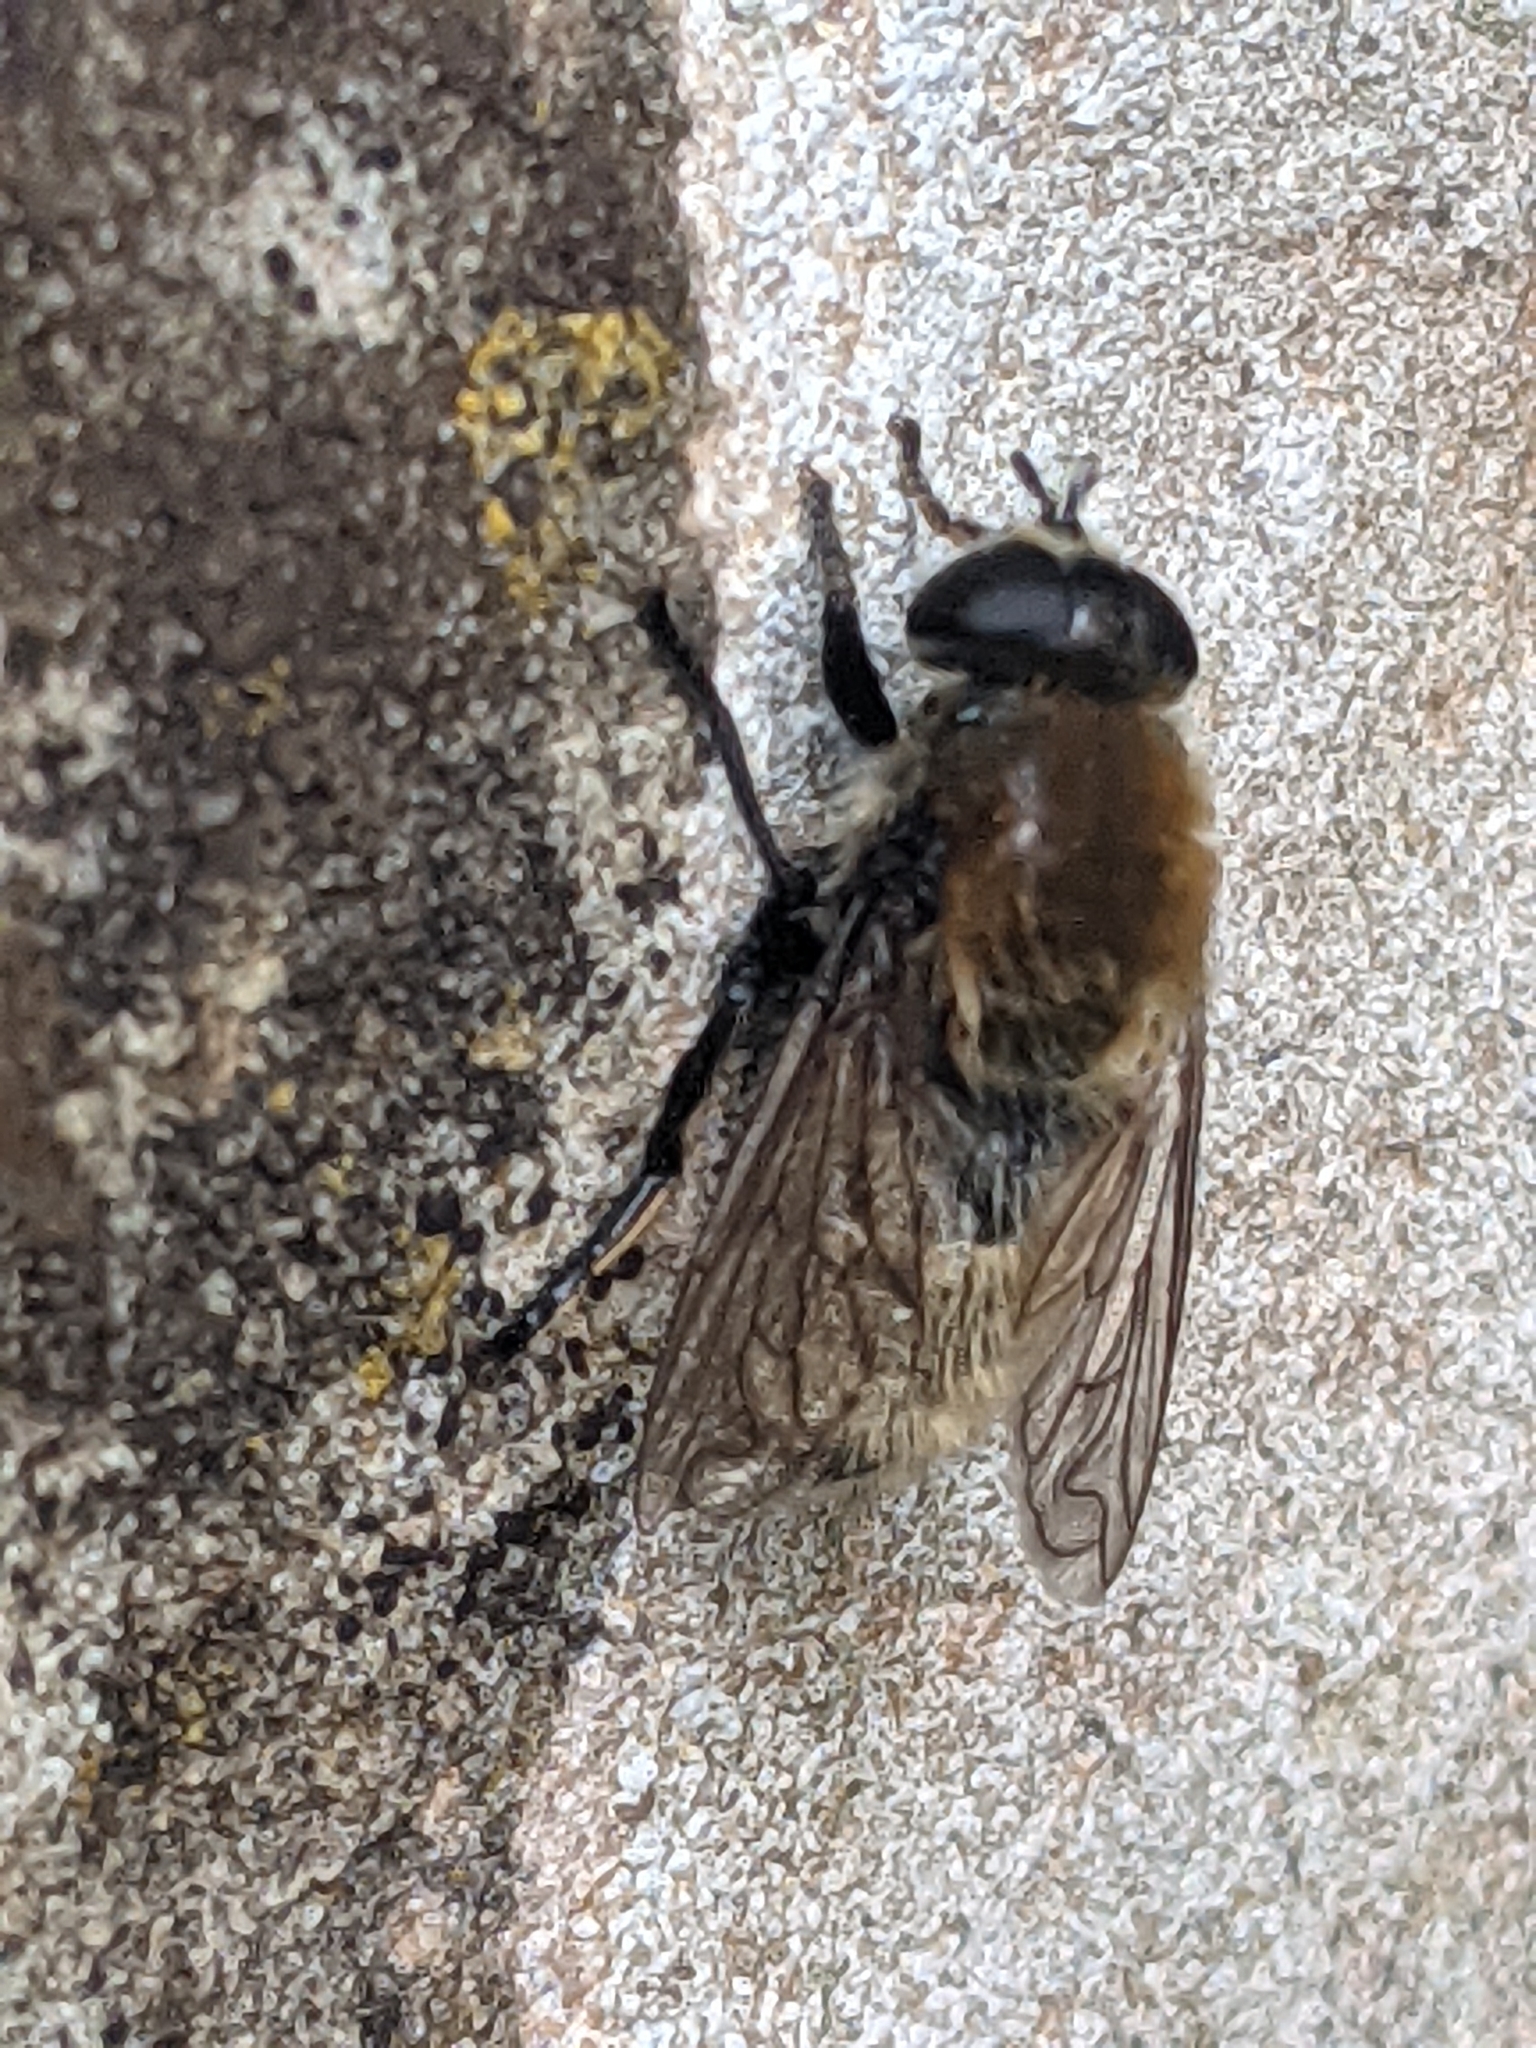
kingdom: Animalia
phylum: Arthropoda
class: Insecta
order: Diptera
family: Syrphidae
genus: Merodon
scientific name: Merodon equestris
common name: Greater bulb-fly
